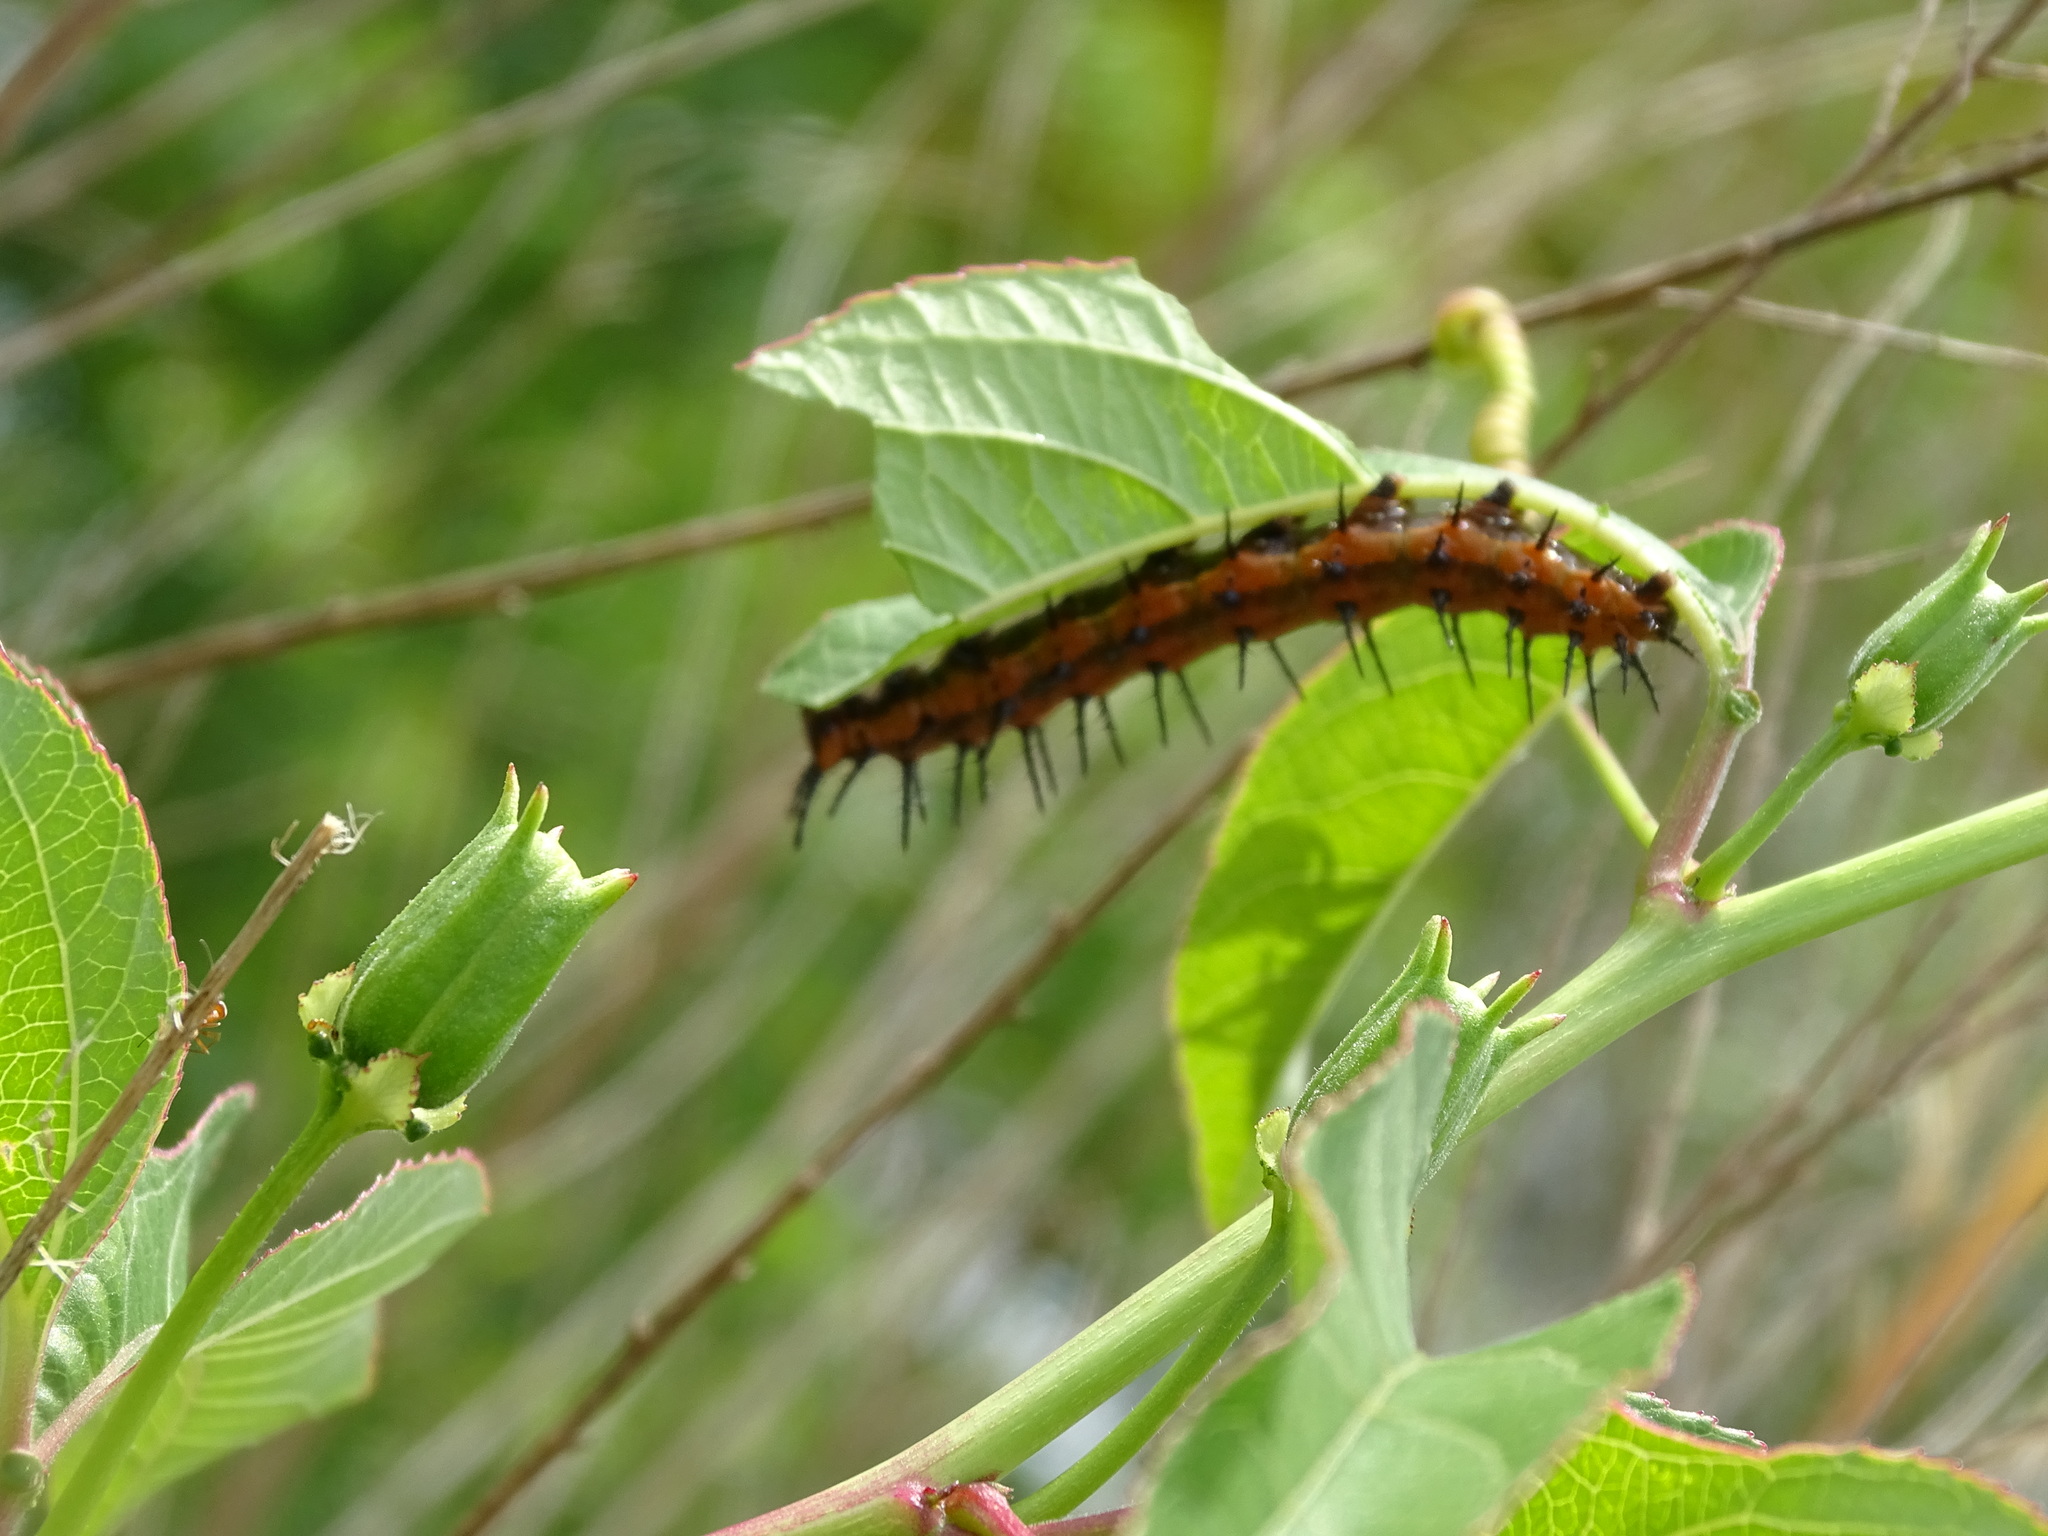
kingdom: Animalia
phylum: Arthropoda
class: Insecta
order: Lepidoptera
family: Nymphalidae
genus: Dione
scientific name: Dione vanillae
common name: Gulf fritillary
